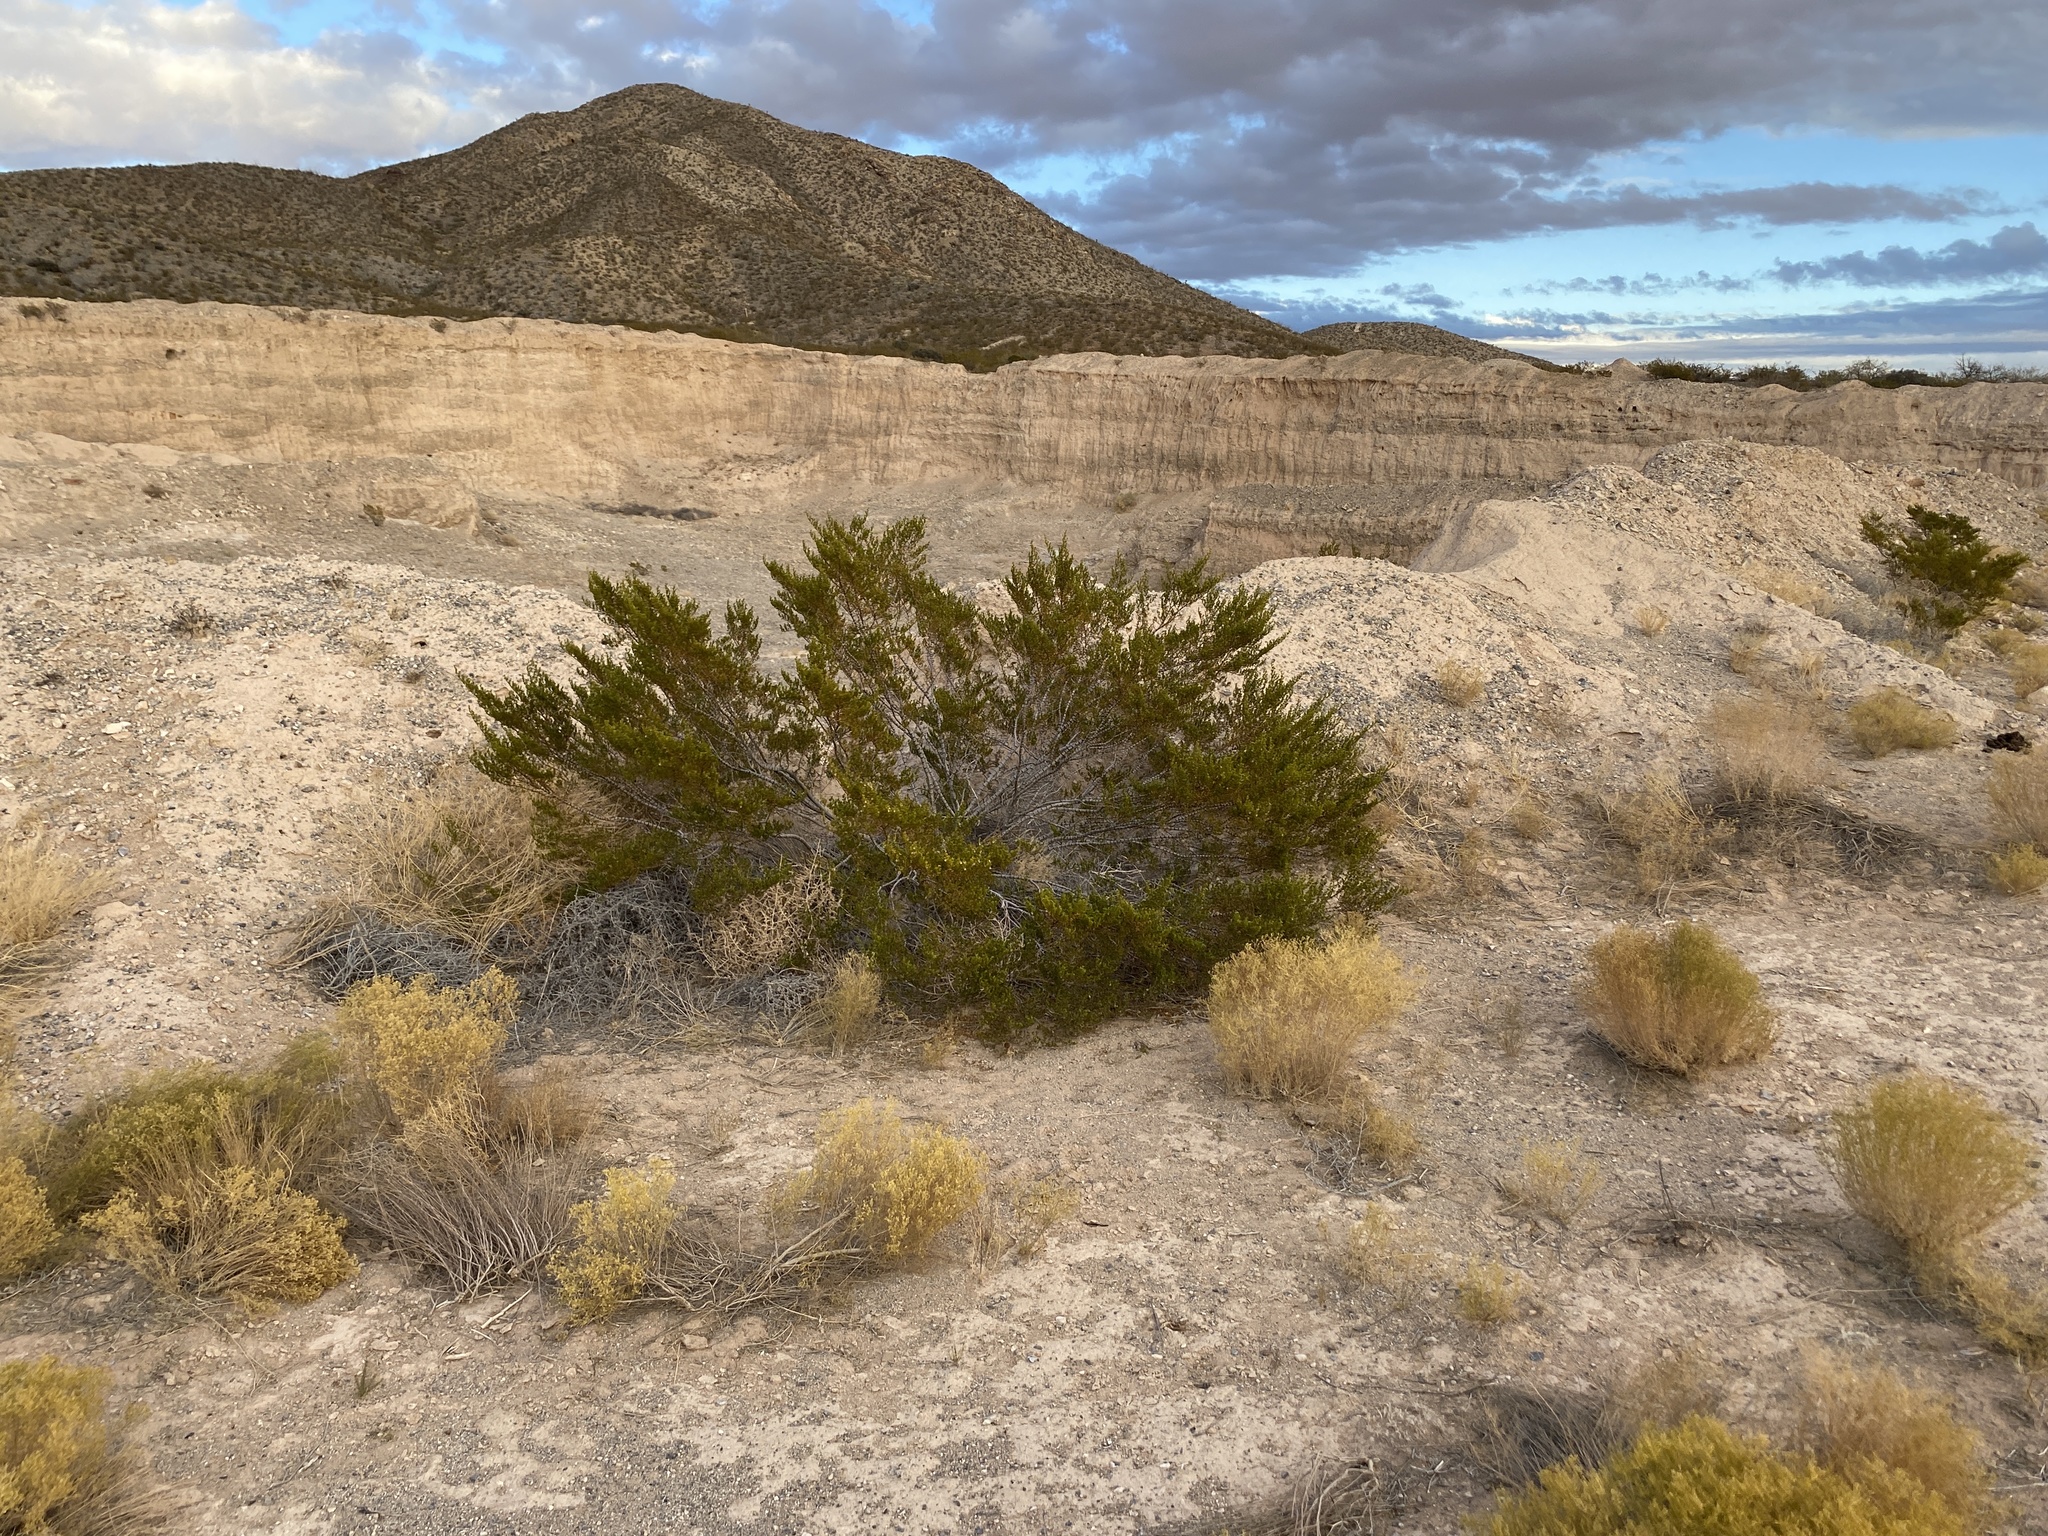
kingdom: Plantae
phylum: Tracheophyta
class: Magnoliopsida
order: Zygophyllales
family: Zygophyllaceae
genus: Larrea
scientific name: Larrea tridentata
